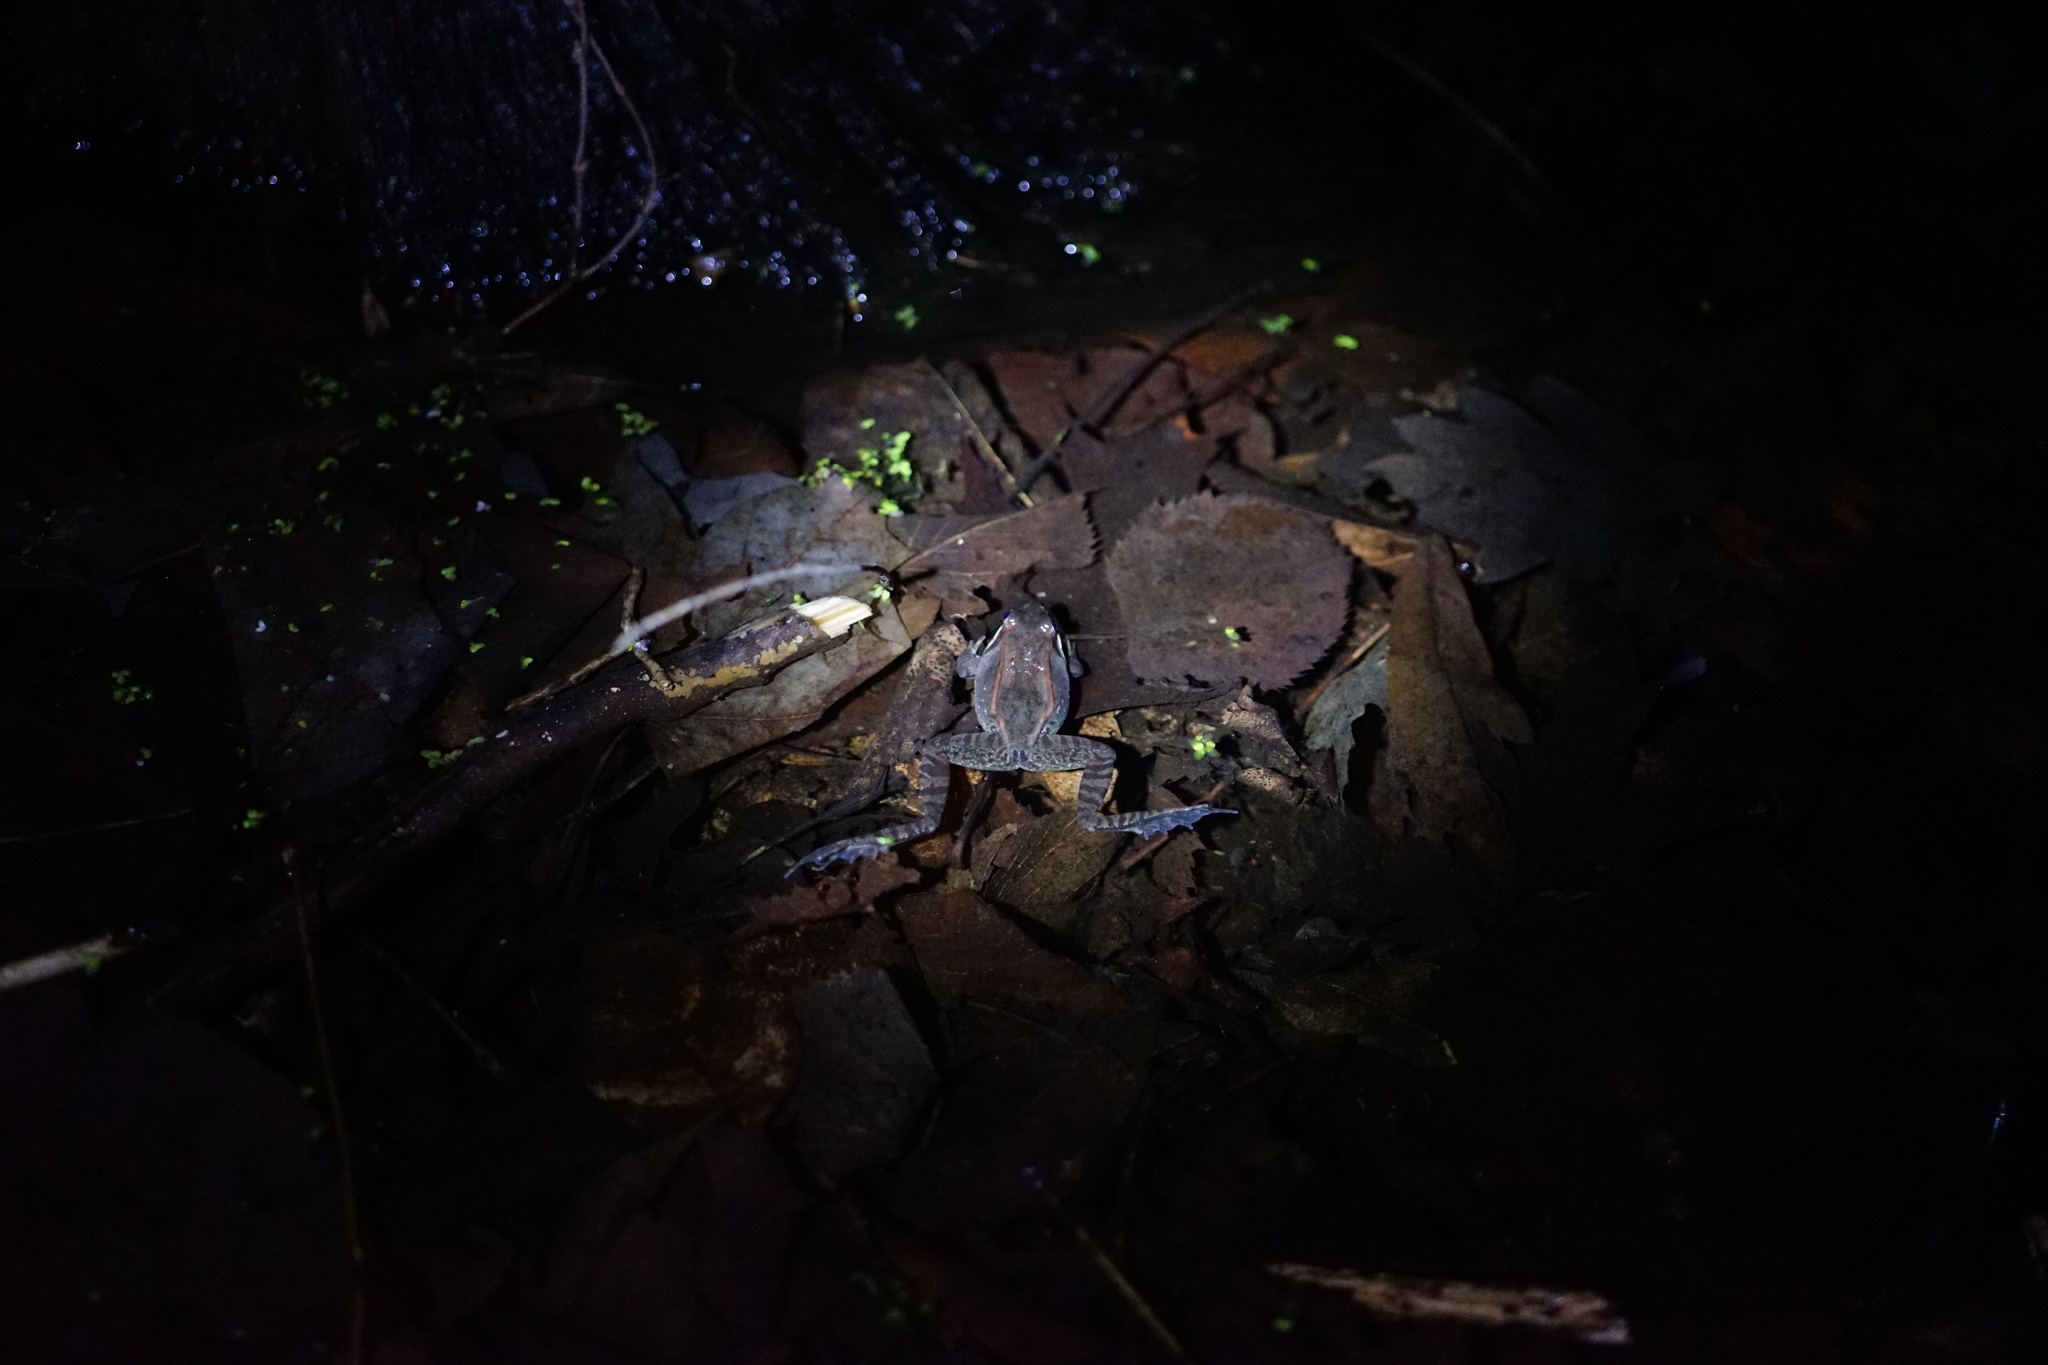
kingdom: Animalia
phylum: Chordata
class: Amphibia
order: Anura
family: Ranidae
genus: Lithobates
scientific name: Lithobates sylvaticus
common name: Wood frog
